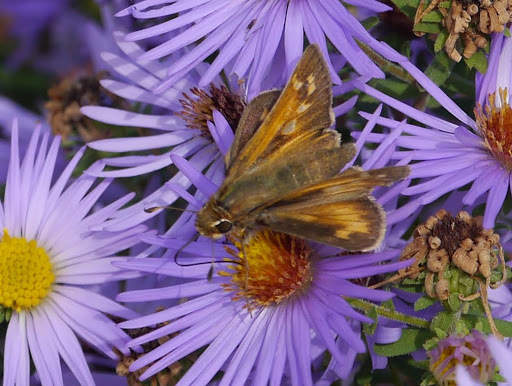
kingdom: Animalia
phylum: Arthropoda
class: Insecta
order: Lepidoptera
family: Hesperiidae
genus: Atalopedes
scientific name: Atalopedes
